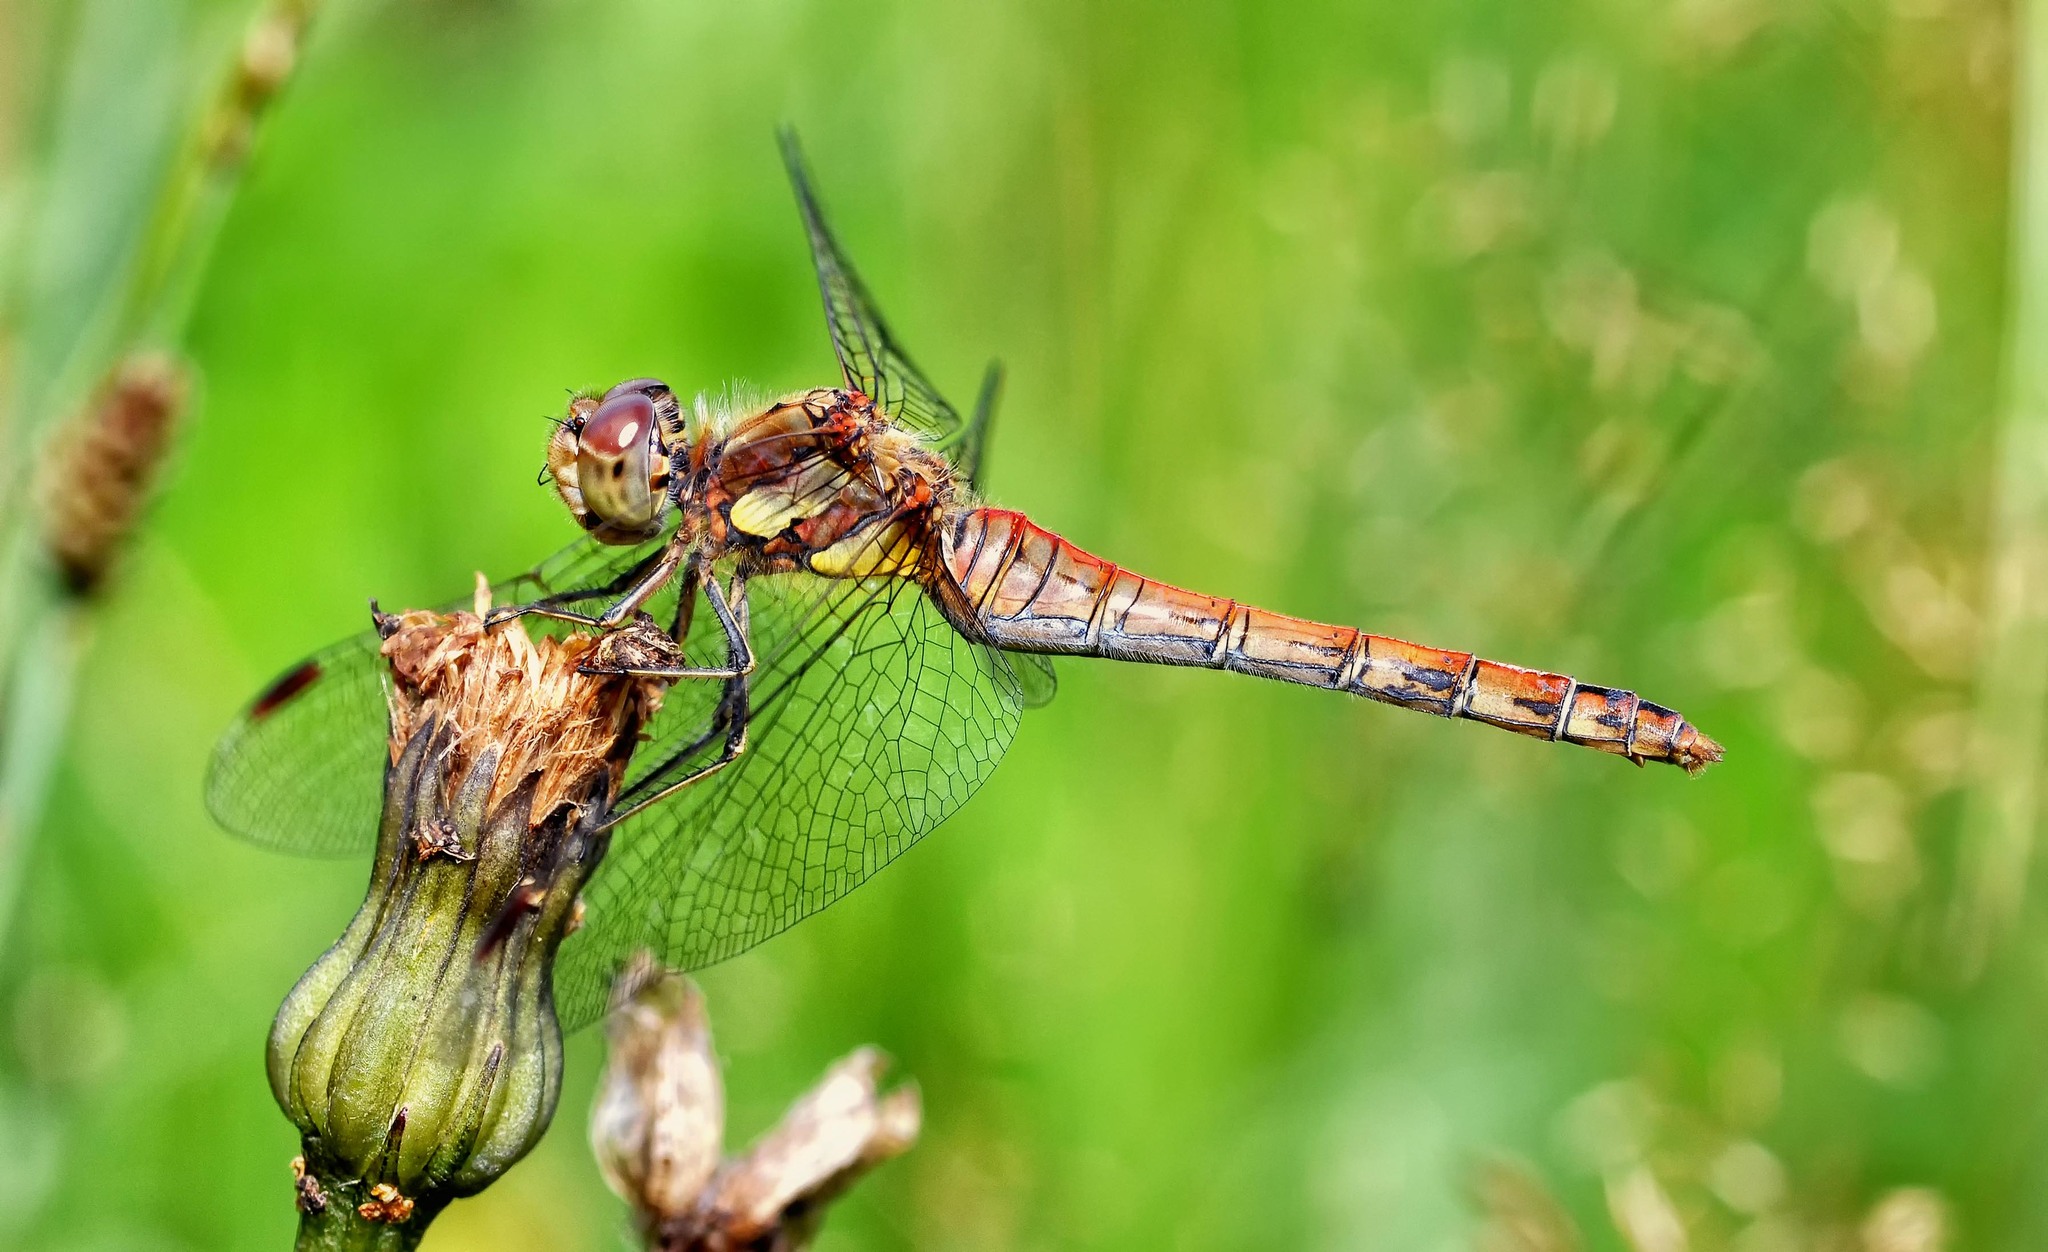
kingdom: Animalia
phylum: Arthropoda
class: Insecta
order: Odonata
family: Libellulidae
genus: Sympetrum
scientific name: Sympetrum striolatum
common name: Common darter
